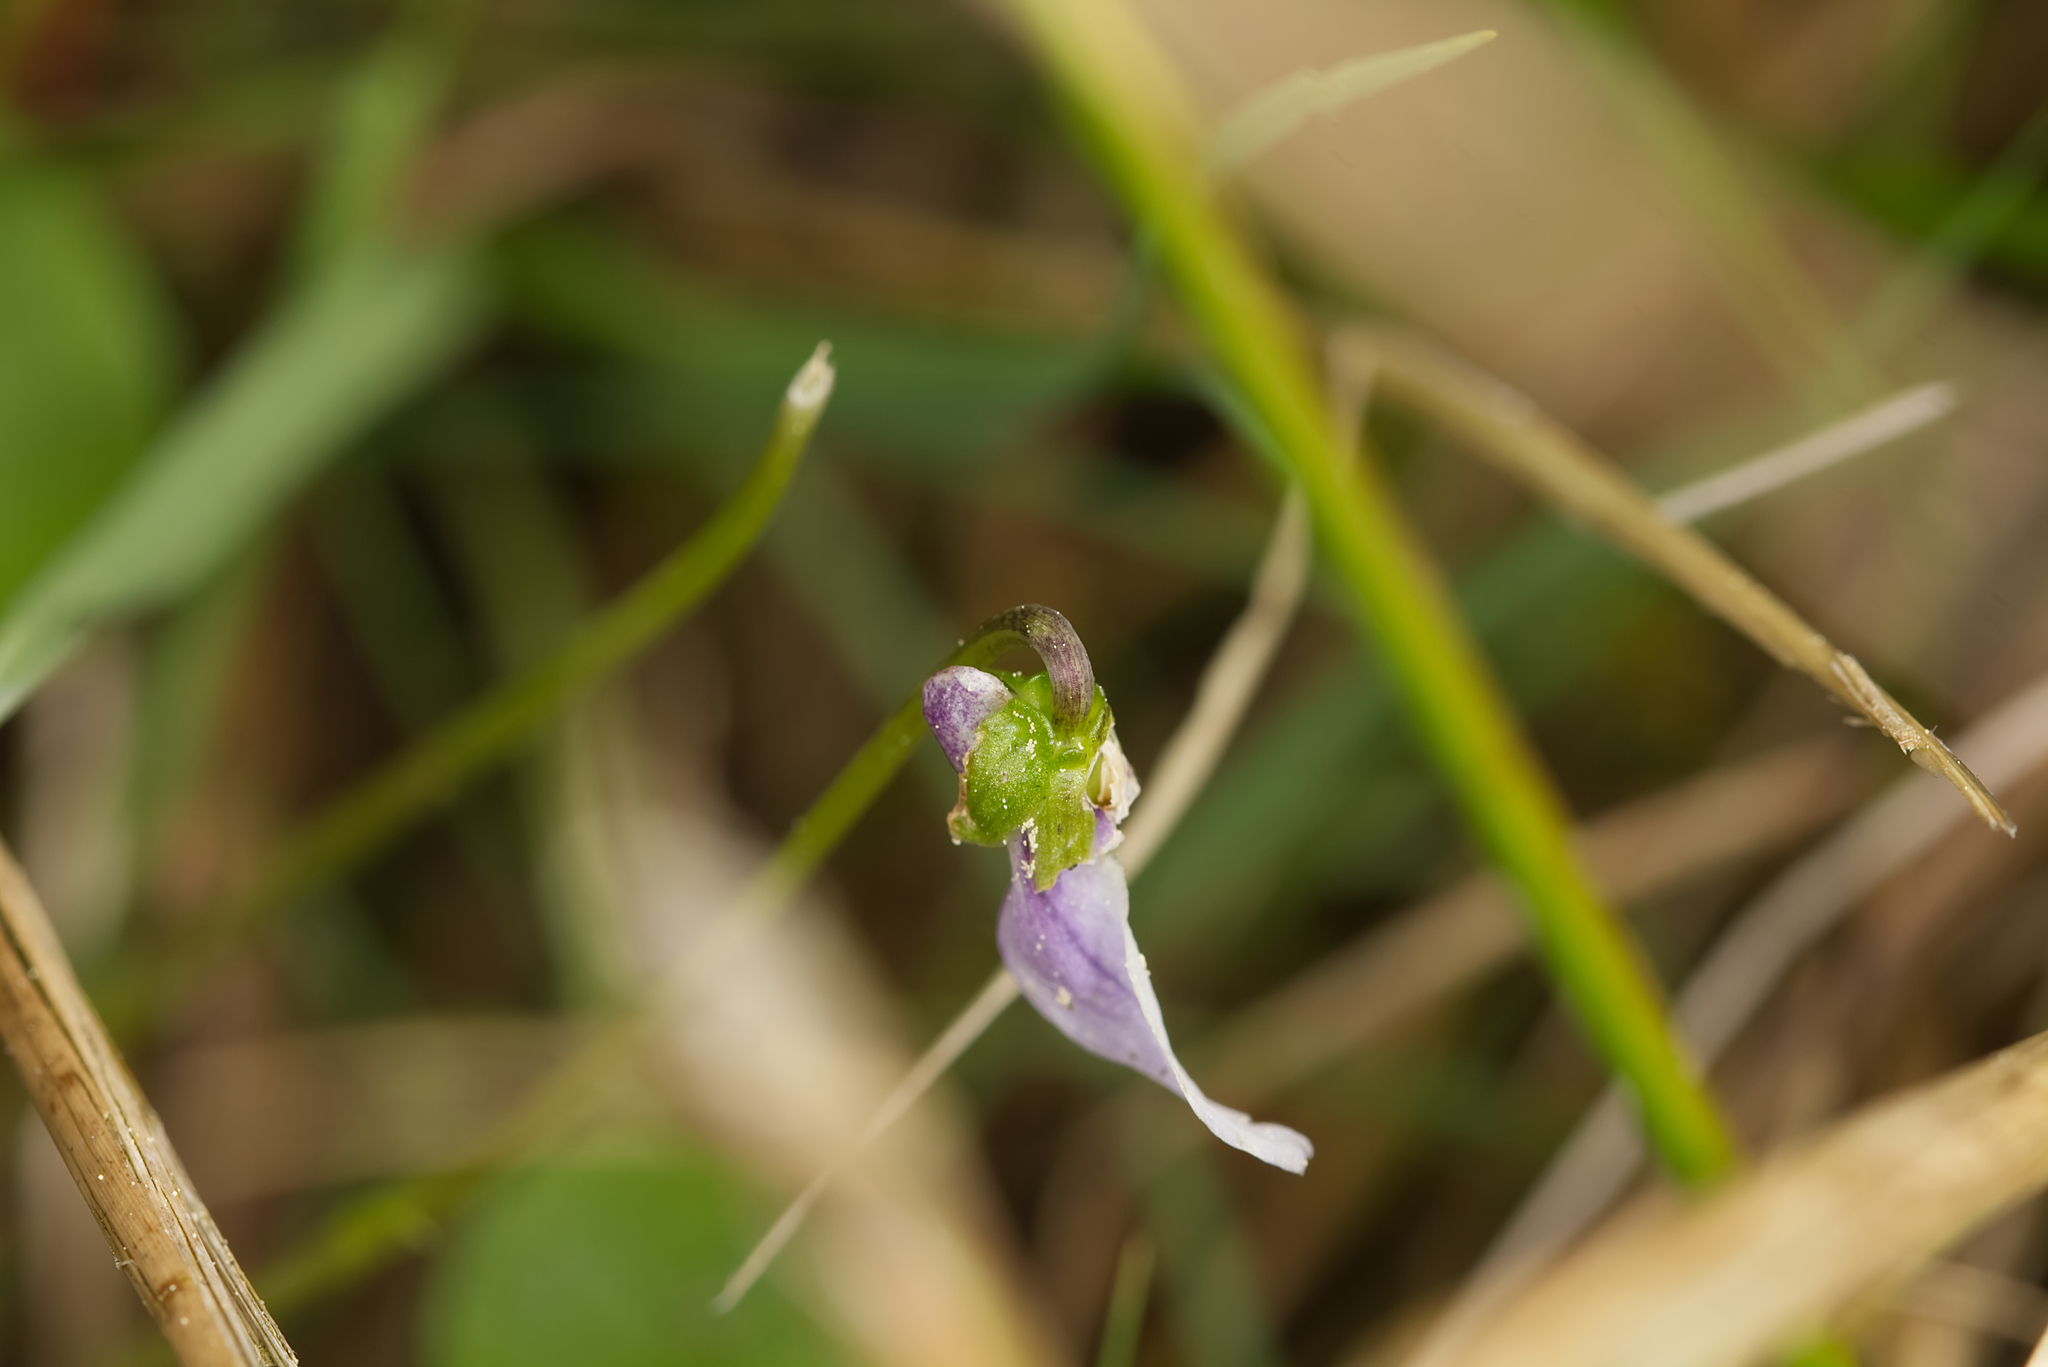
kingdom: Plantae
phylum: Tracheophyta
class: Magnoliopsida
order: Malpighiales
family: Violaceae
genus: Viola
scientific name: Viola palustris
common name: Marsh violet
